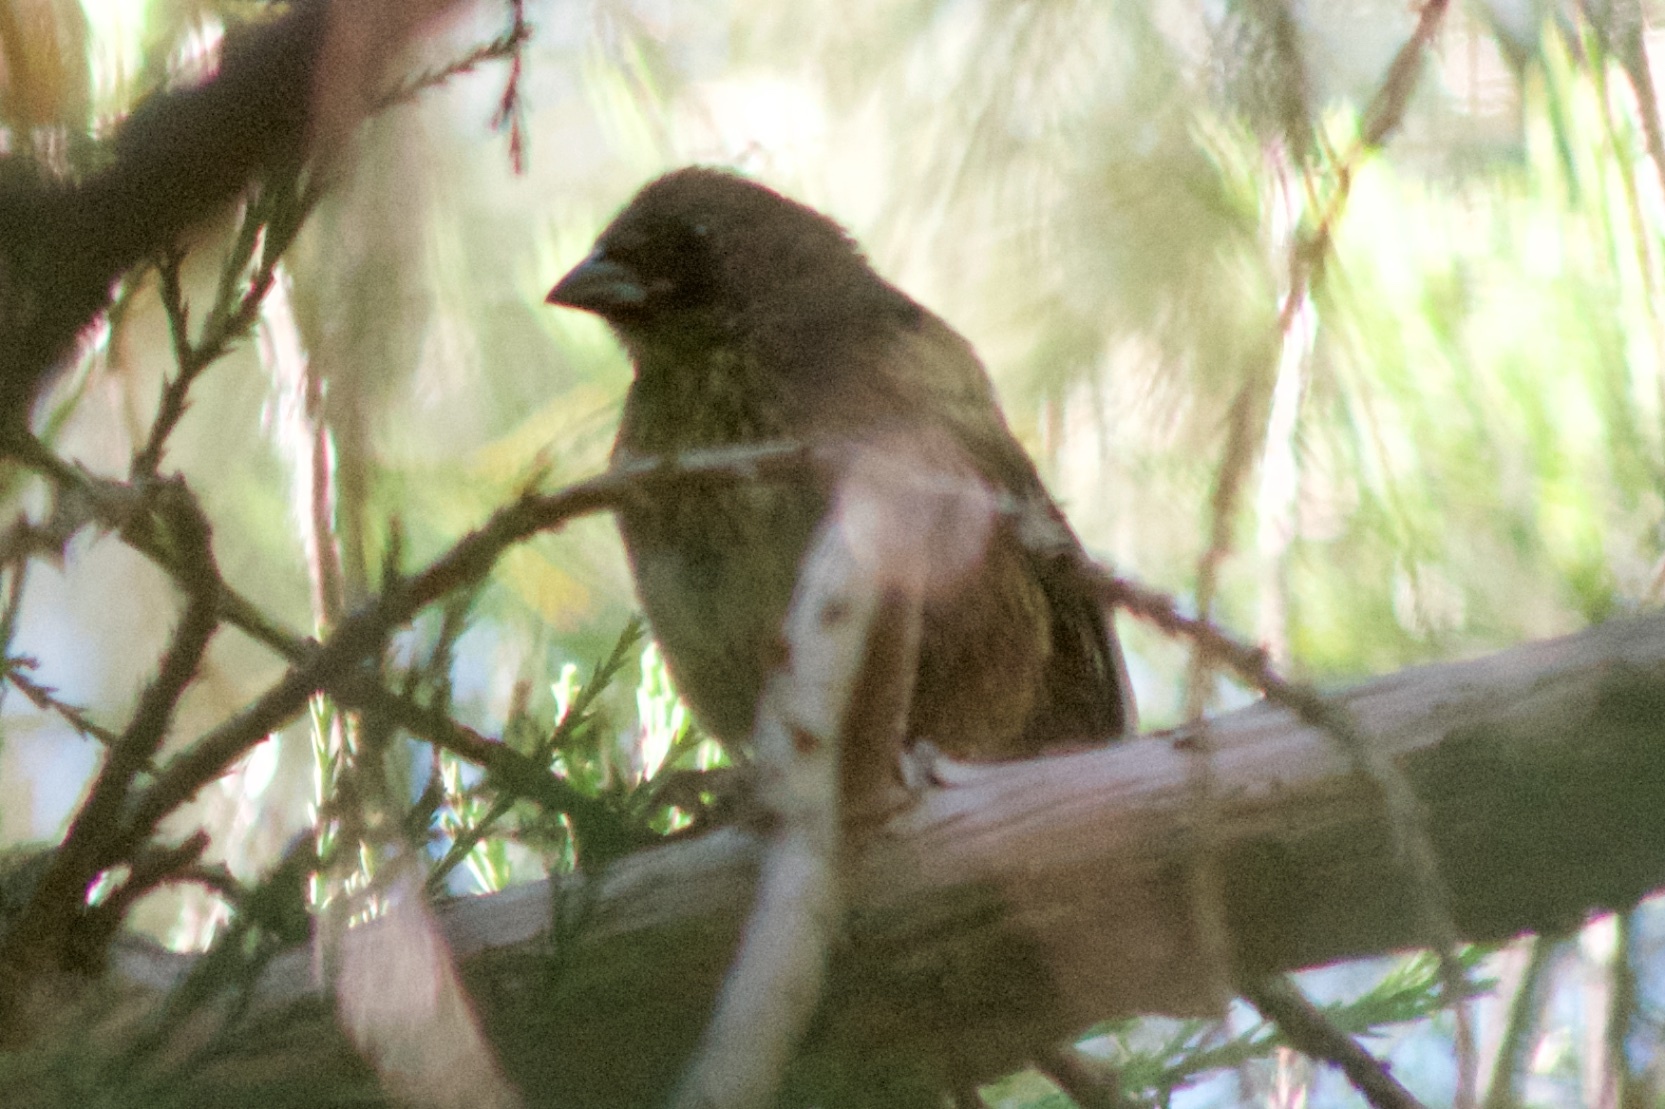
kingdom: Animalia
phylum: Chordata
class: Aves
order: Passeriformes
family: Passerellidae
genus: Pipilo
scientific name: Pipilo maculatus
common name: Spotted towhee
